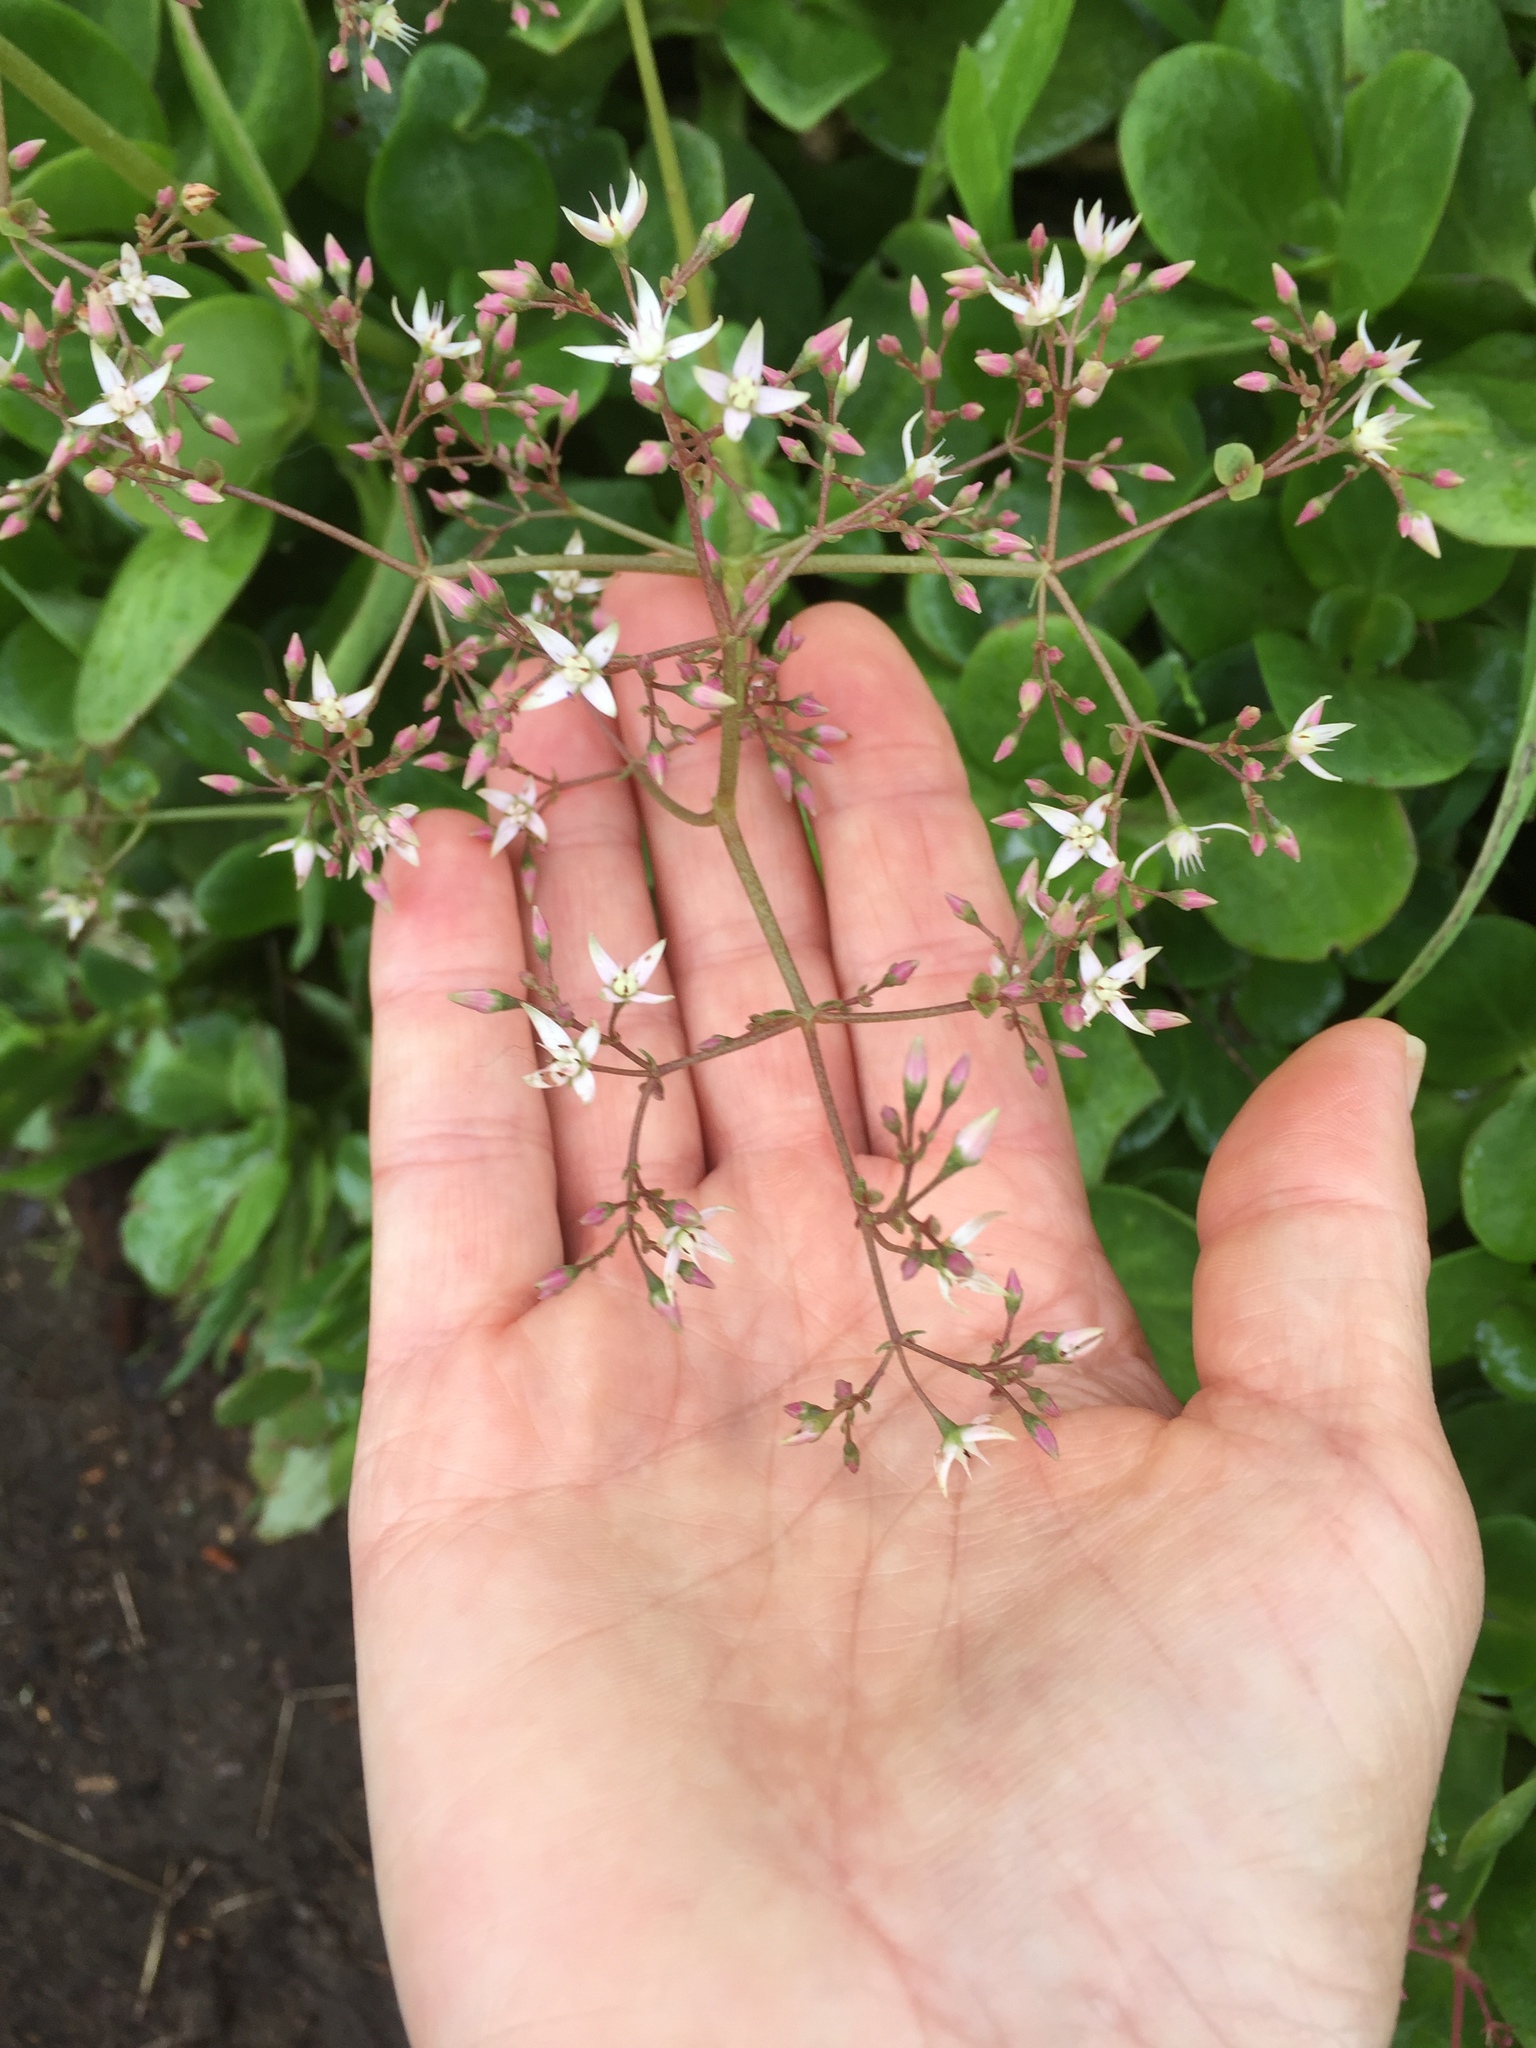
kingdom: Plantae
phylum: Tracheophyta
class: Magnoliopsida
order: Saxifragales
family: Crassulaceae
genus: Crassula
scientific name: Crassula multicava
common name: Cape province pygmyweed
